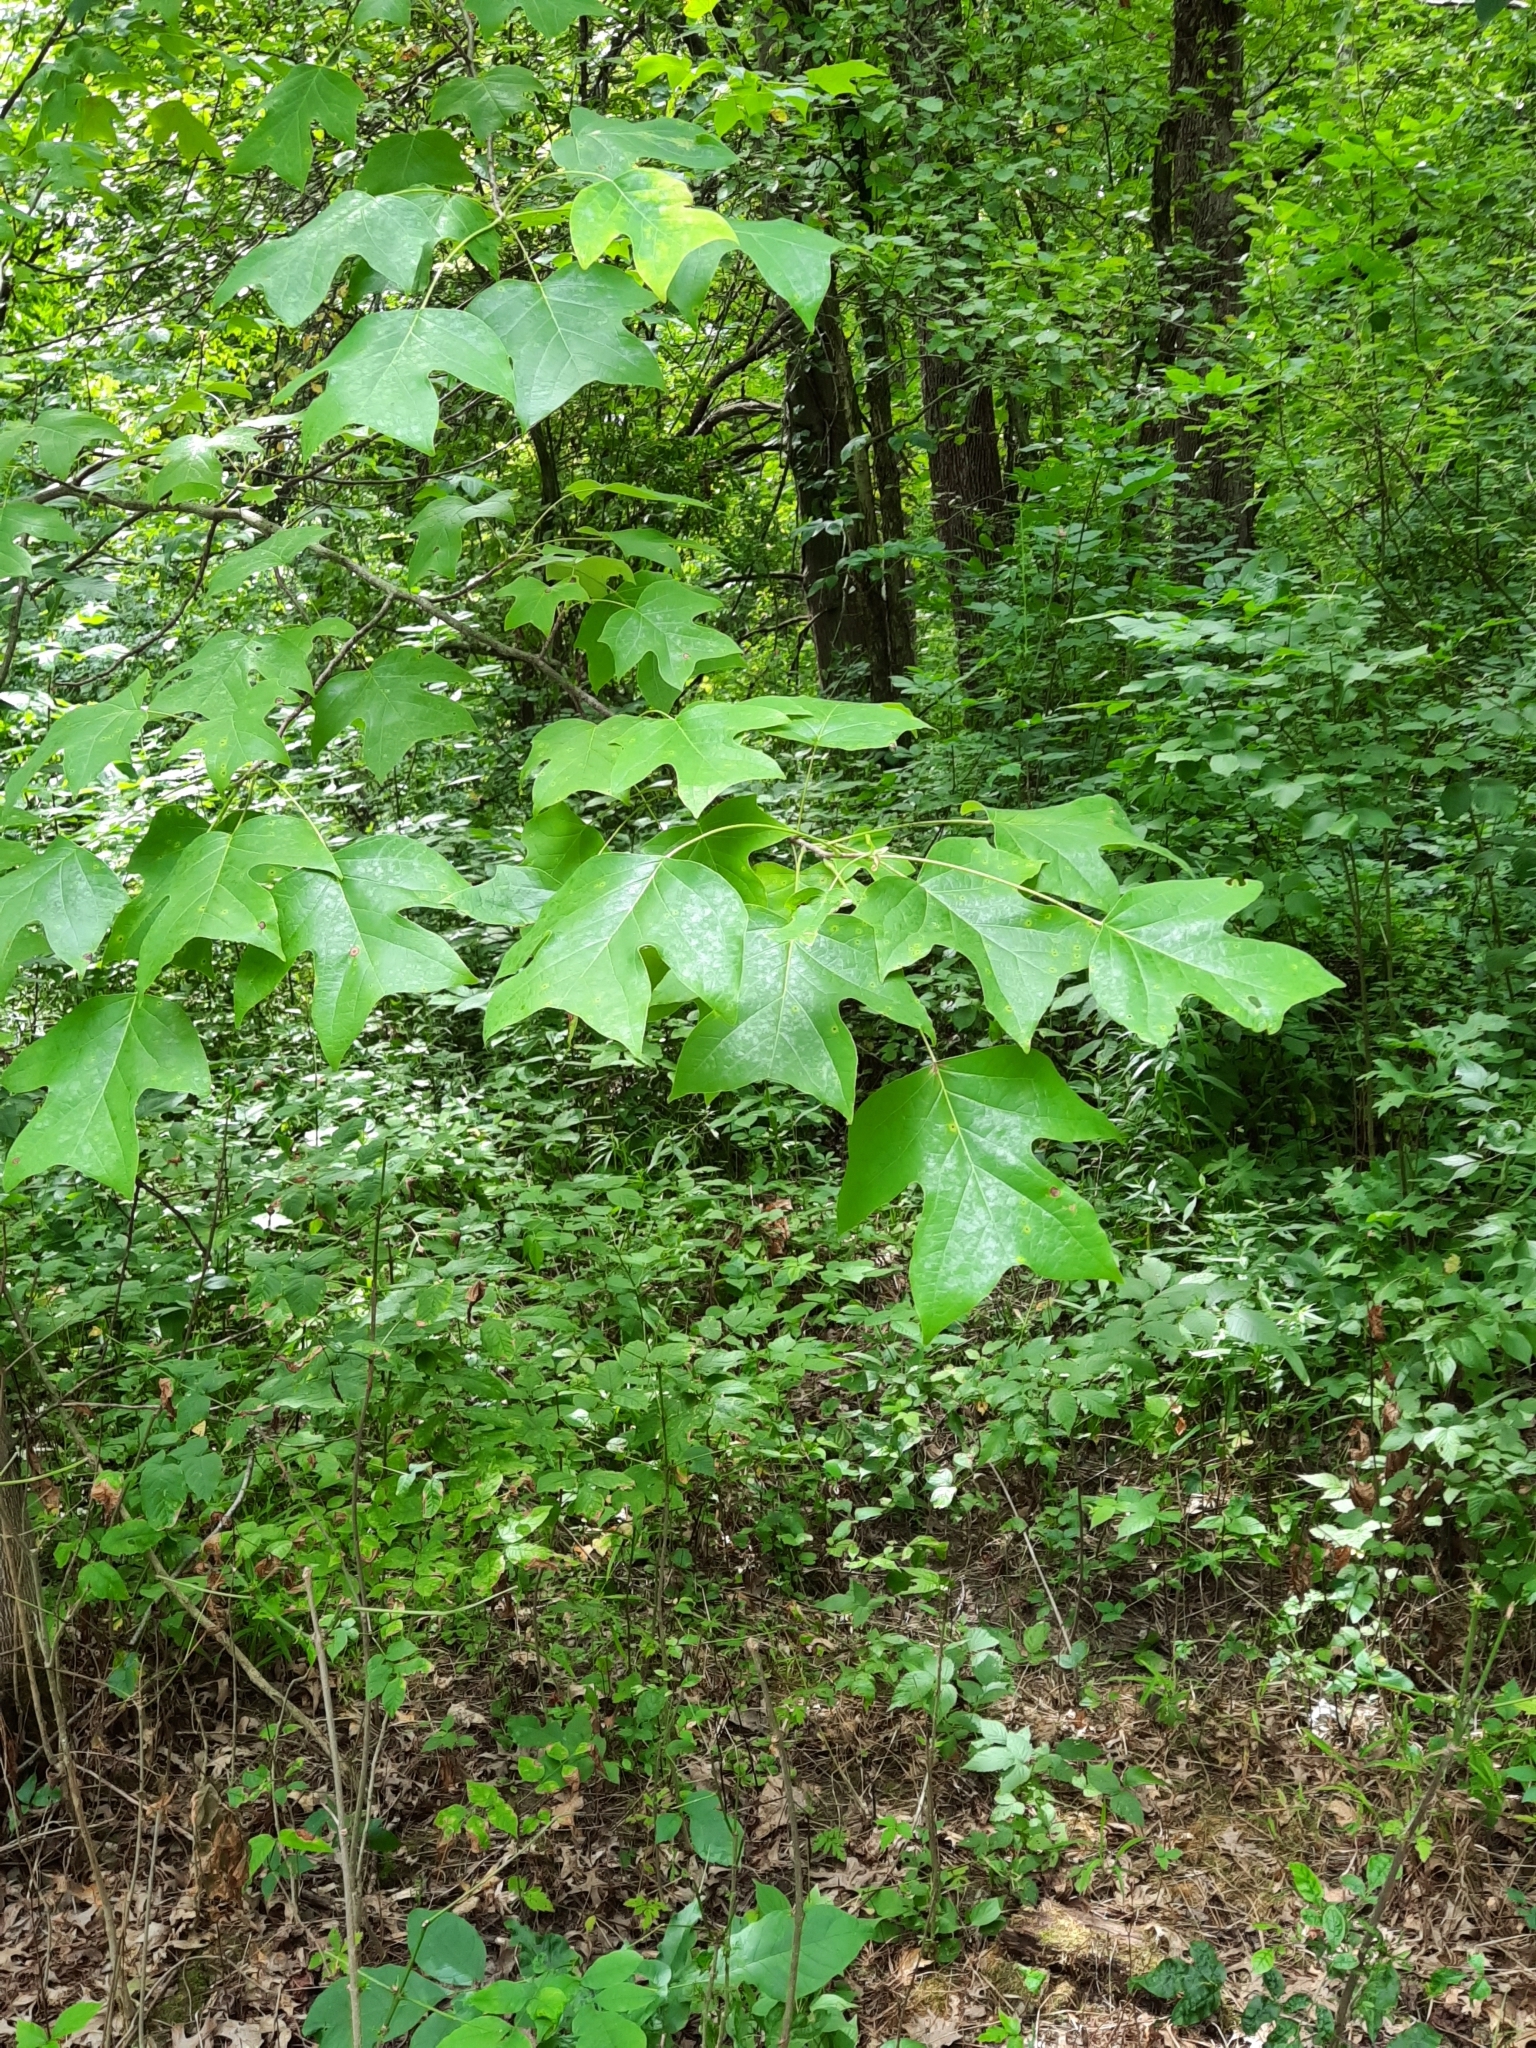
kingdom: Plantae
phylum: Tracheophyta
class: Magnoliopsida
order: Magnoliales
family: Magnoliaceae
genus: Liriodendron
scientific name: Liriodendron tulipifera
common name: Tulip tree
